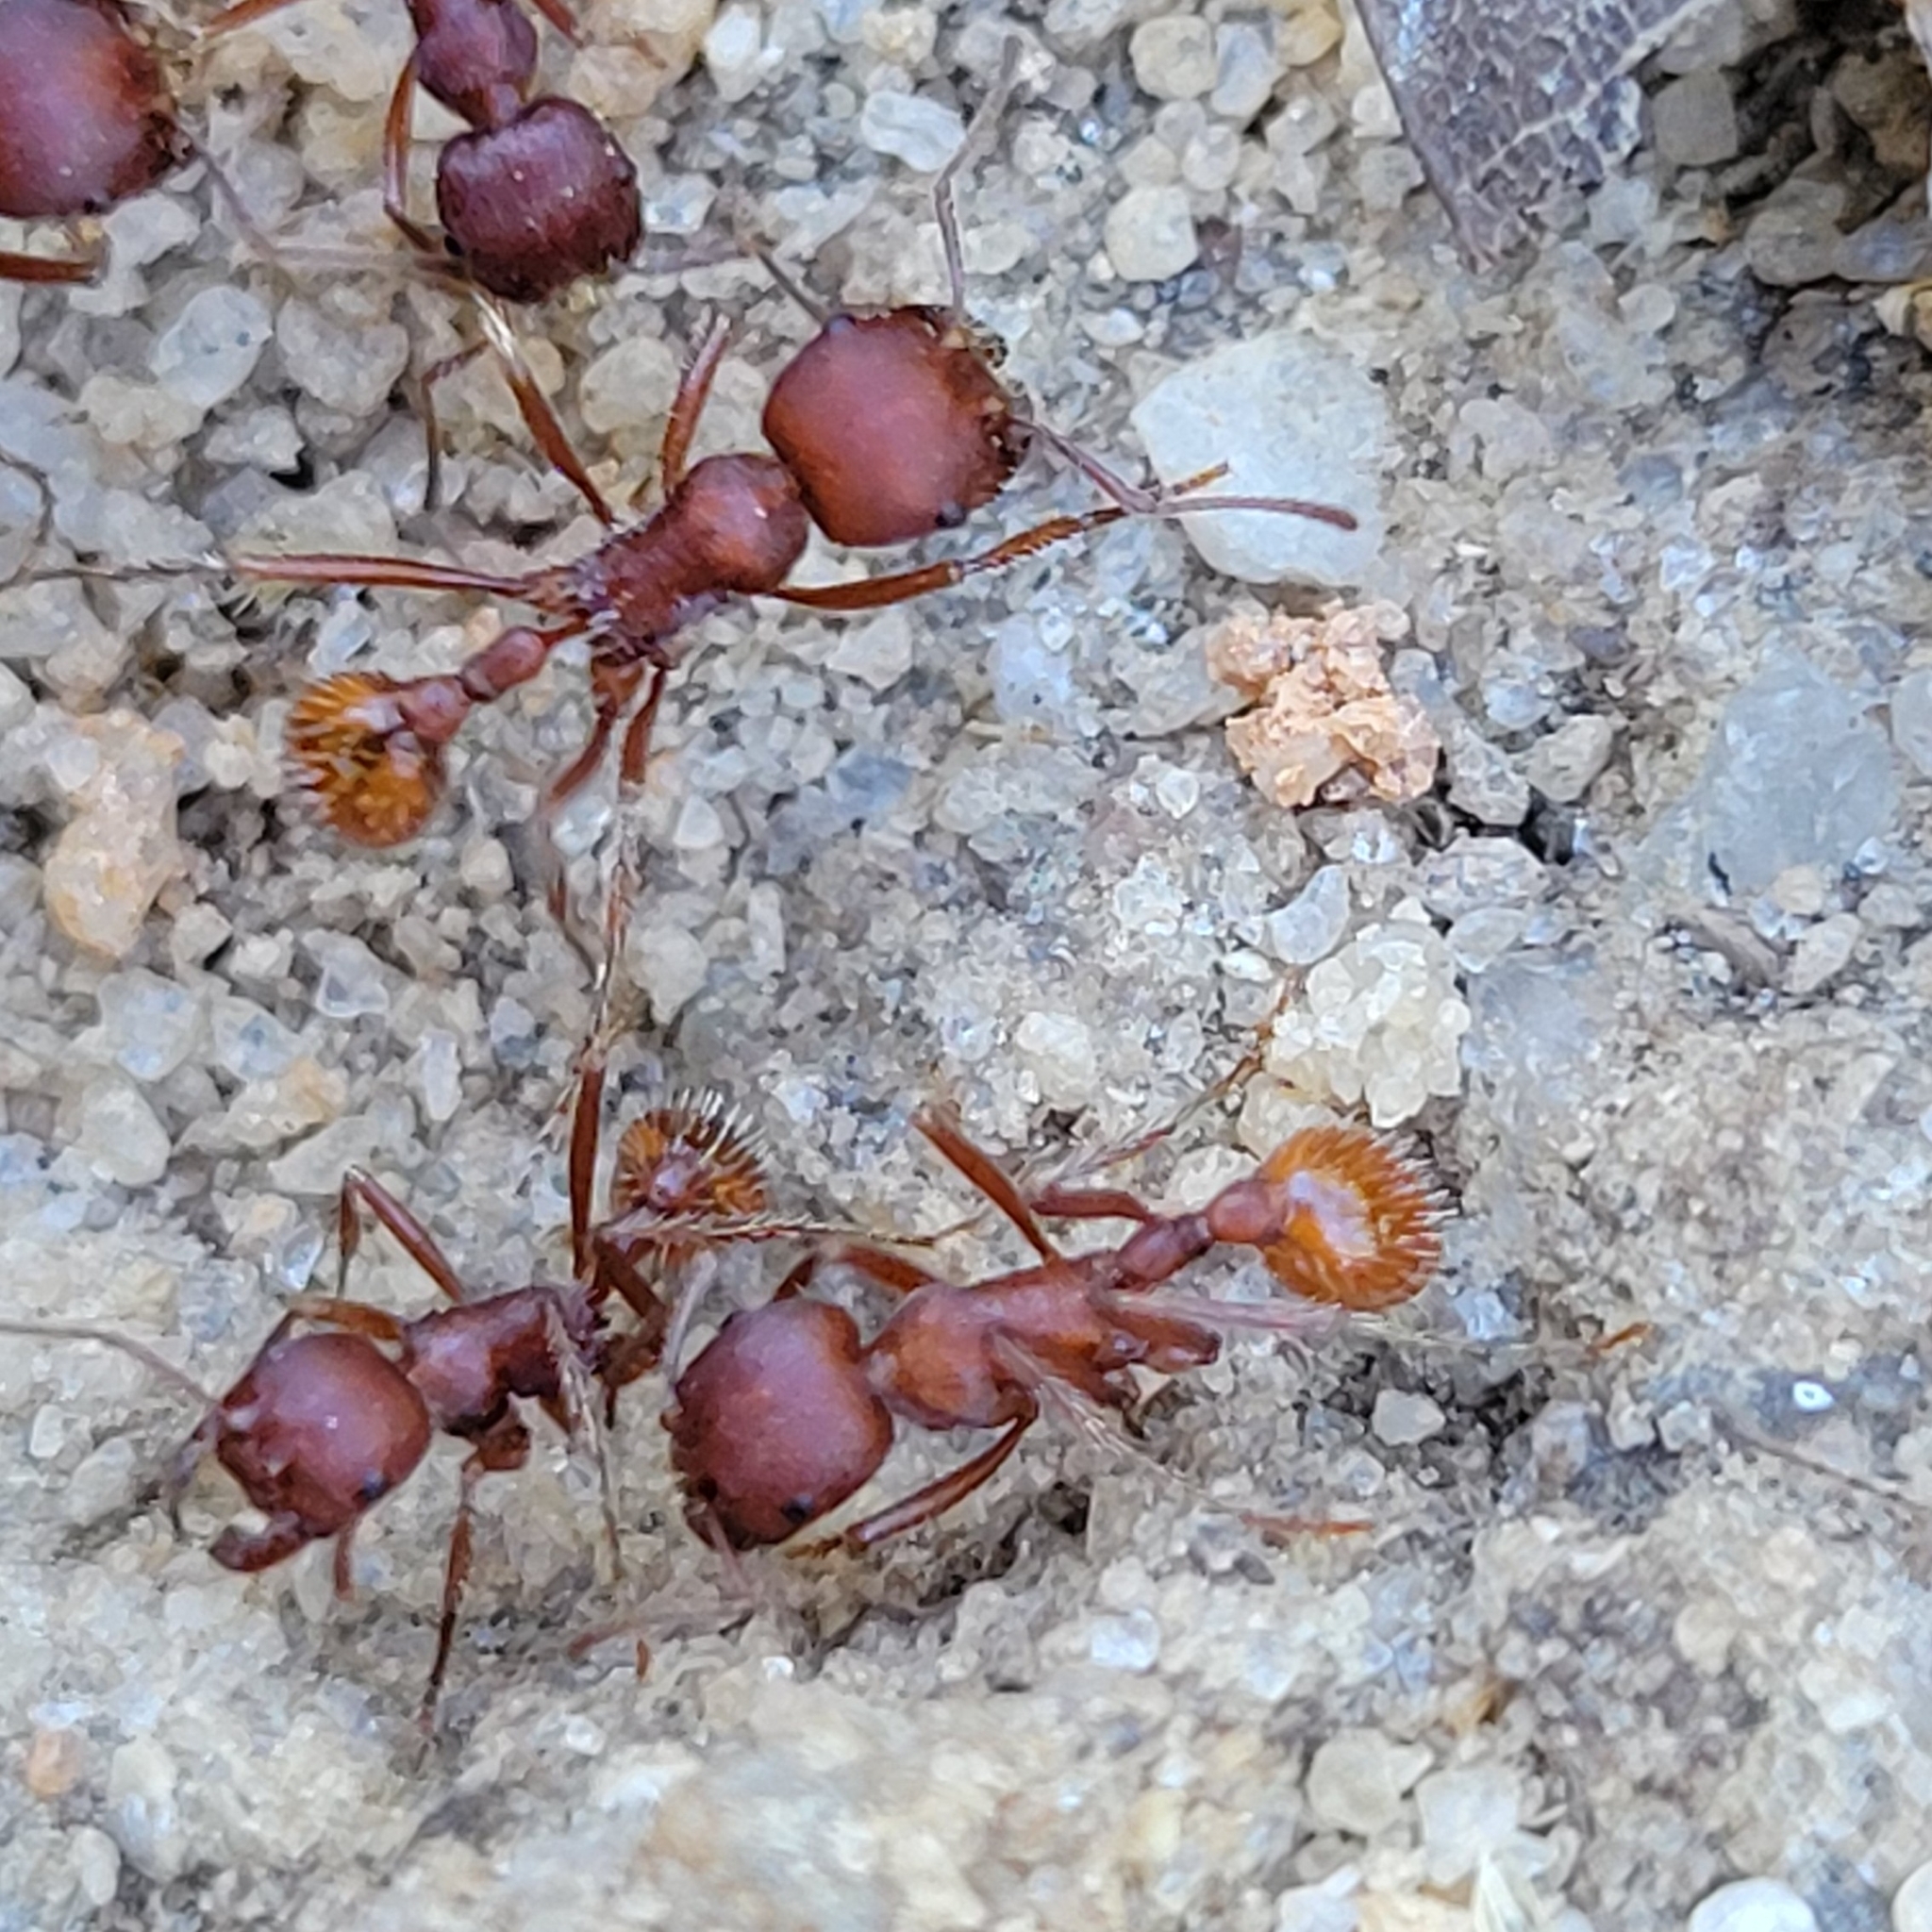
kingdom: Animalia
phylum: Arthropoda
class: Insecta
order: Hymenoptera
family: Formicidae
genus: Pogonomyrmex
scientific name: Pogonomyrmex badius
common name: Florida harvester ant
